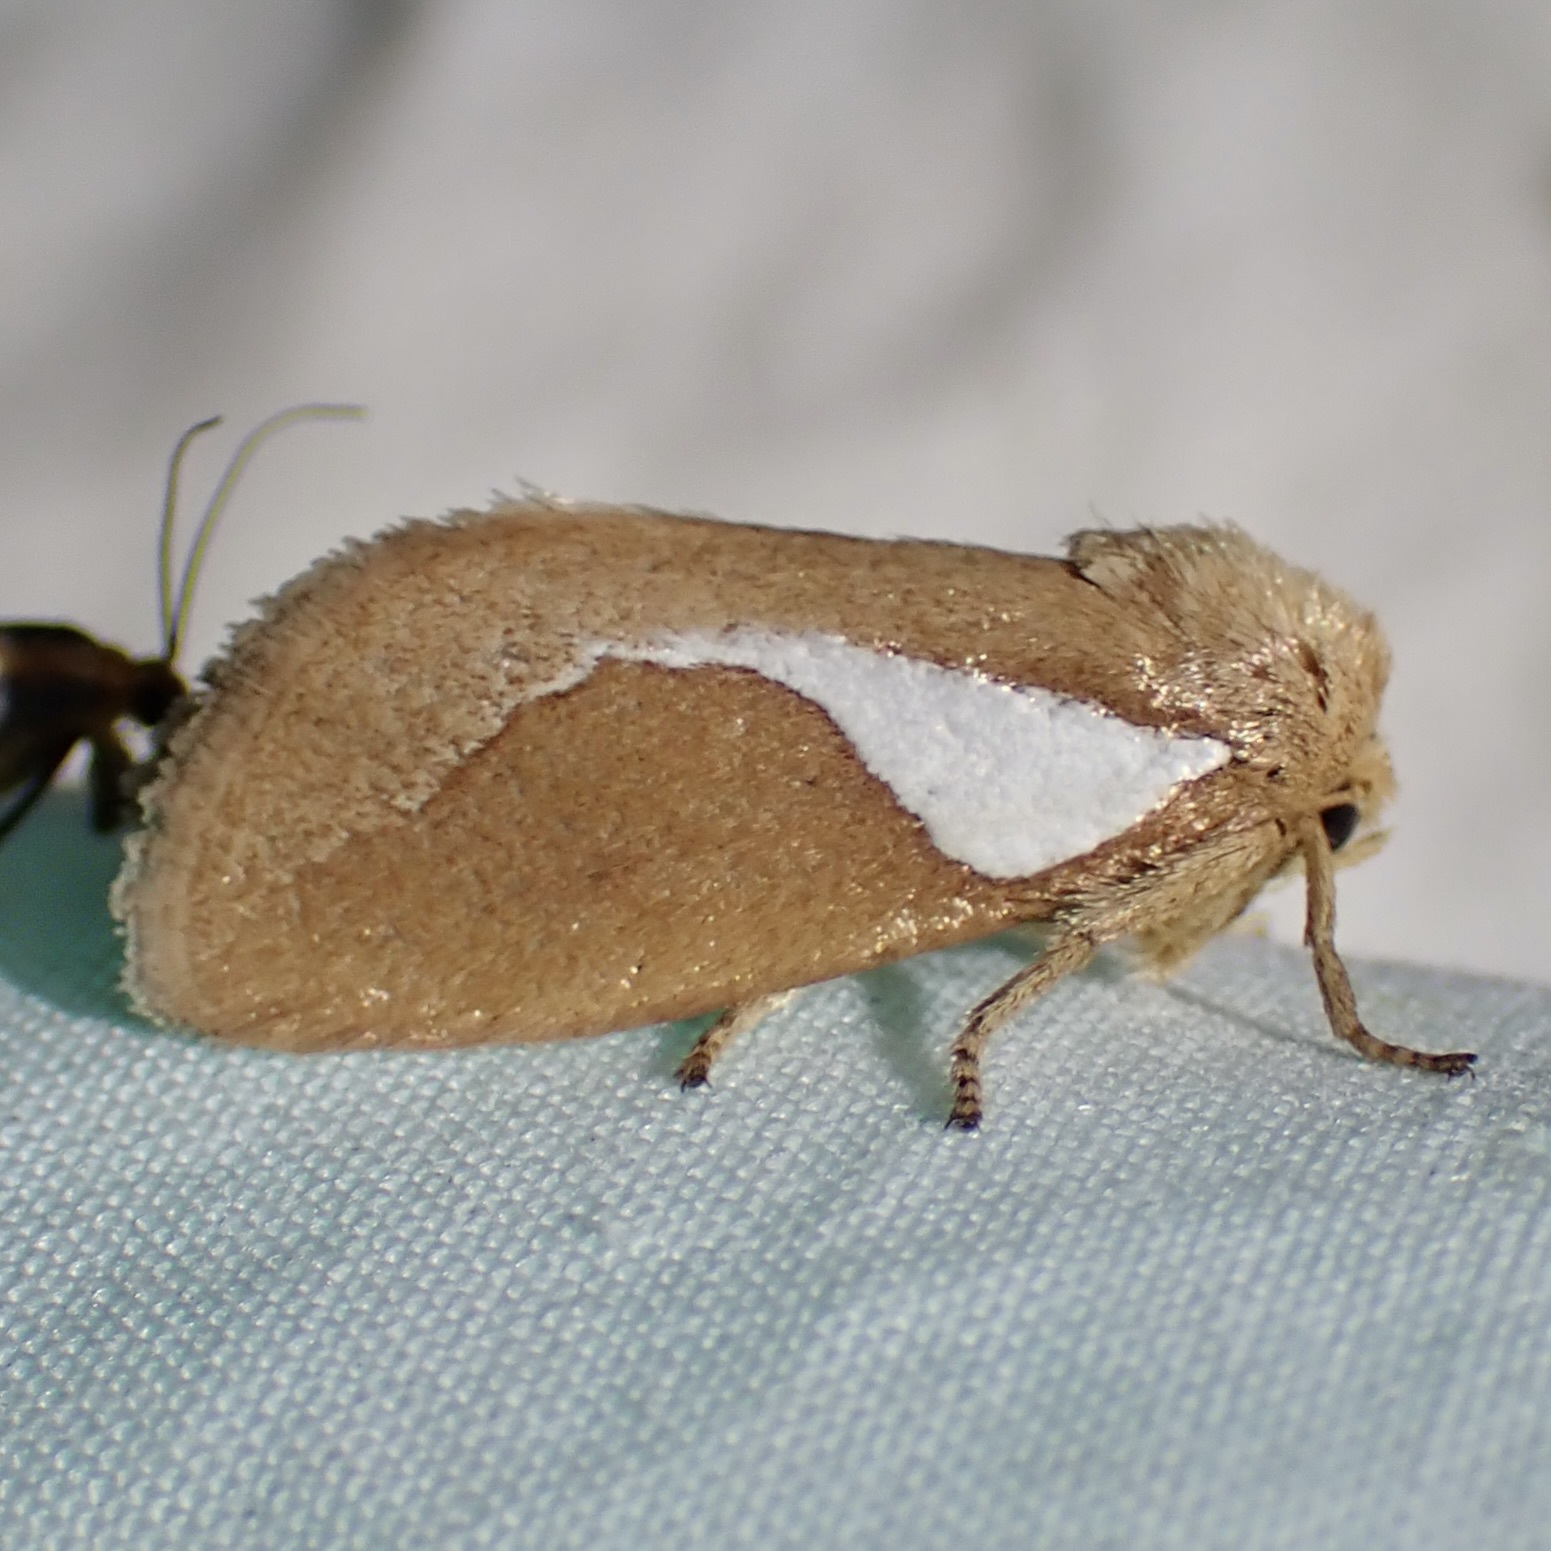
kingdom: Animalia
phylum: Arthropoda
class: Insecta
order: Lepidoptera
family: Limacodidae
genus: Prolimacodes
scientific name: Prolimacodes trigona
